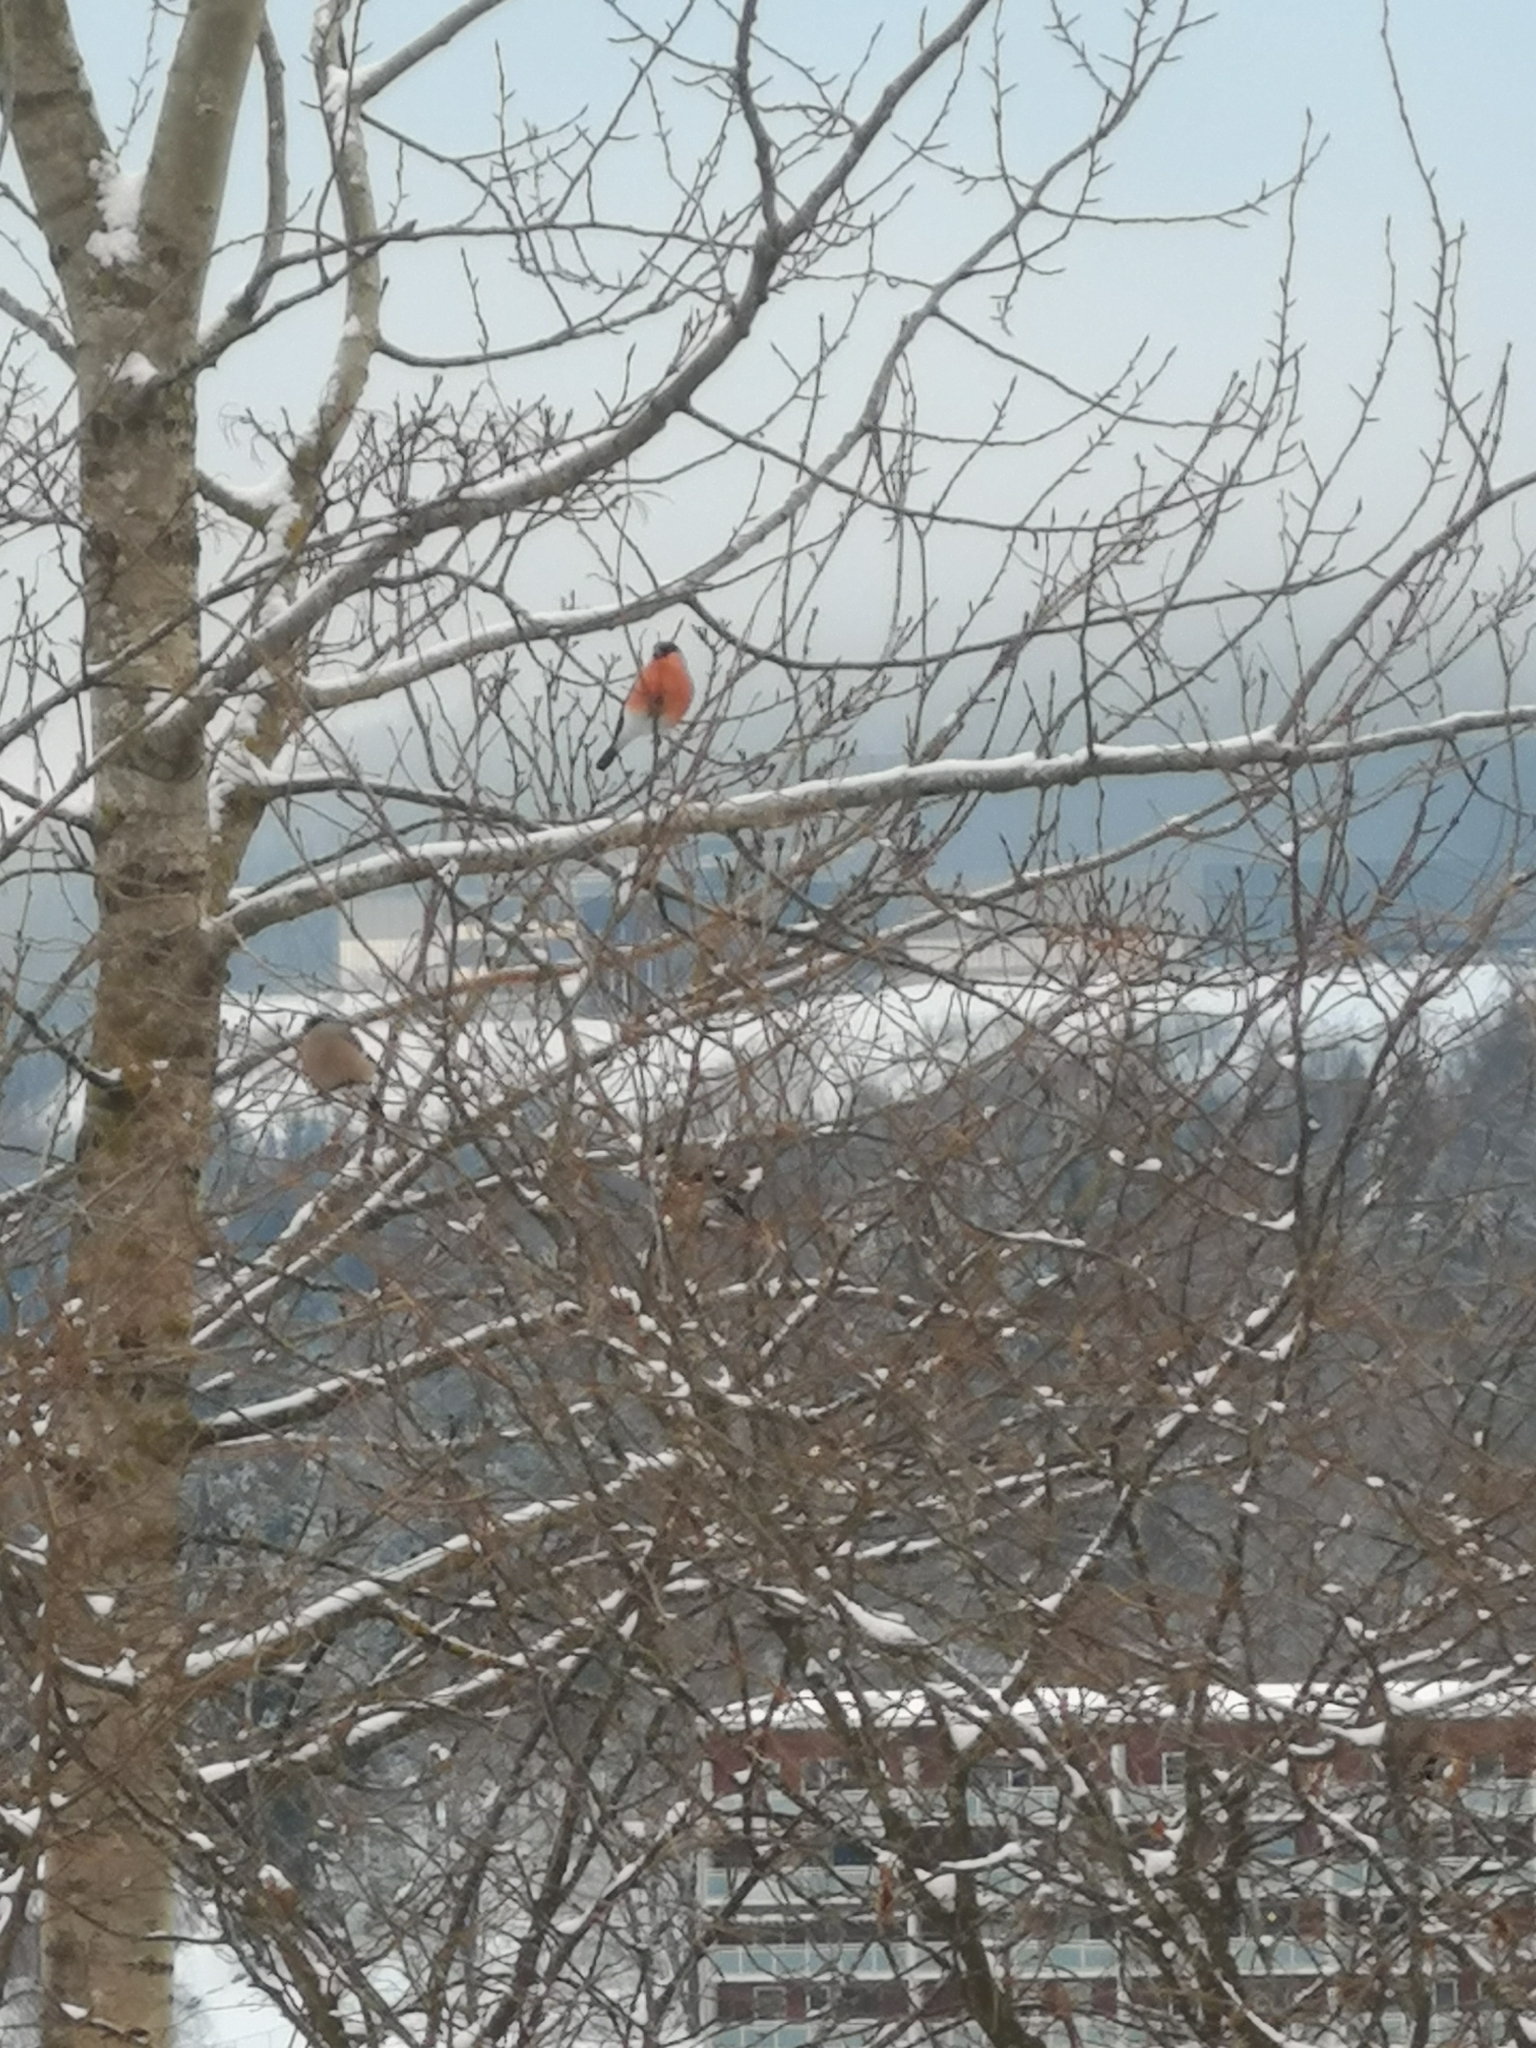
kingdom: Animalia
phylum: Chordata
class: Aves
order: Passeriformes
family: Fringillidae
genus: Pyrrhula
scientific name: Pyrrhula pyrrhula
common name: Eurasian bullfinch
